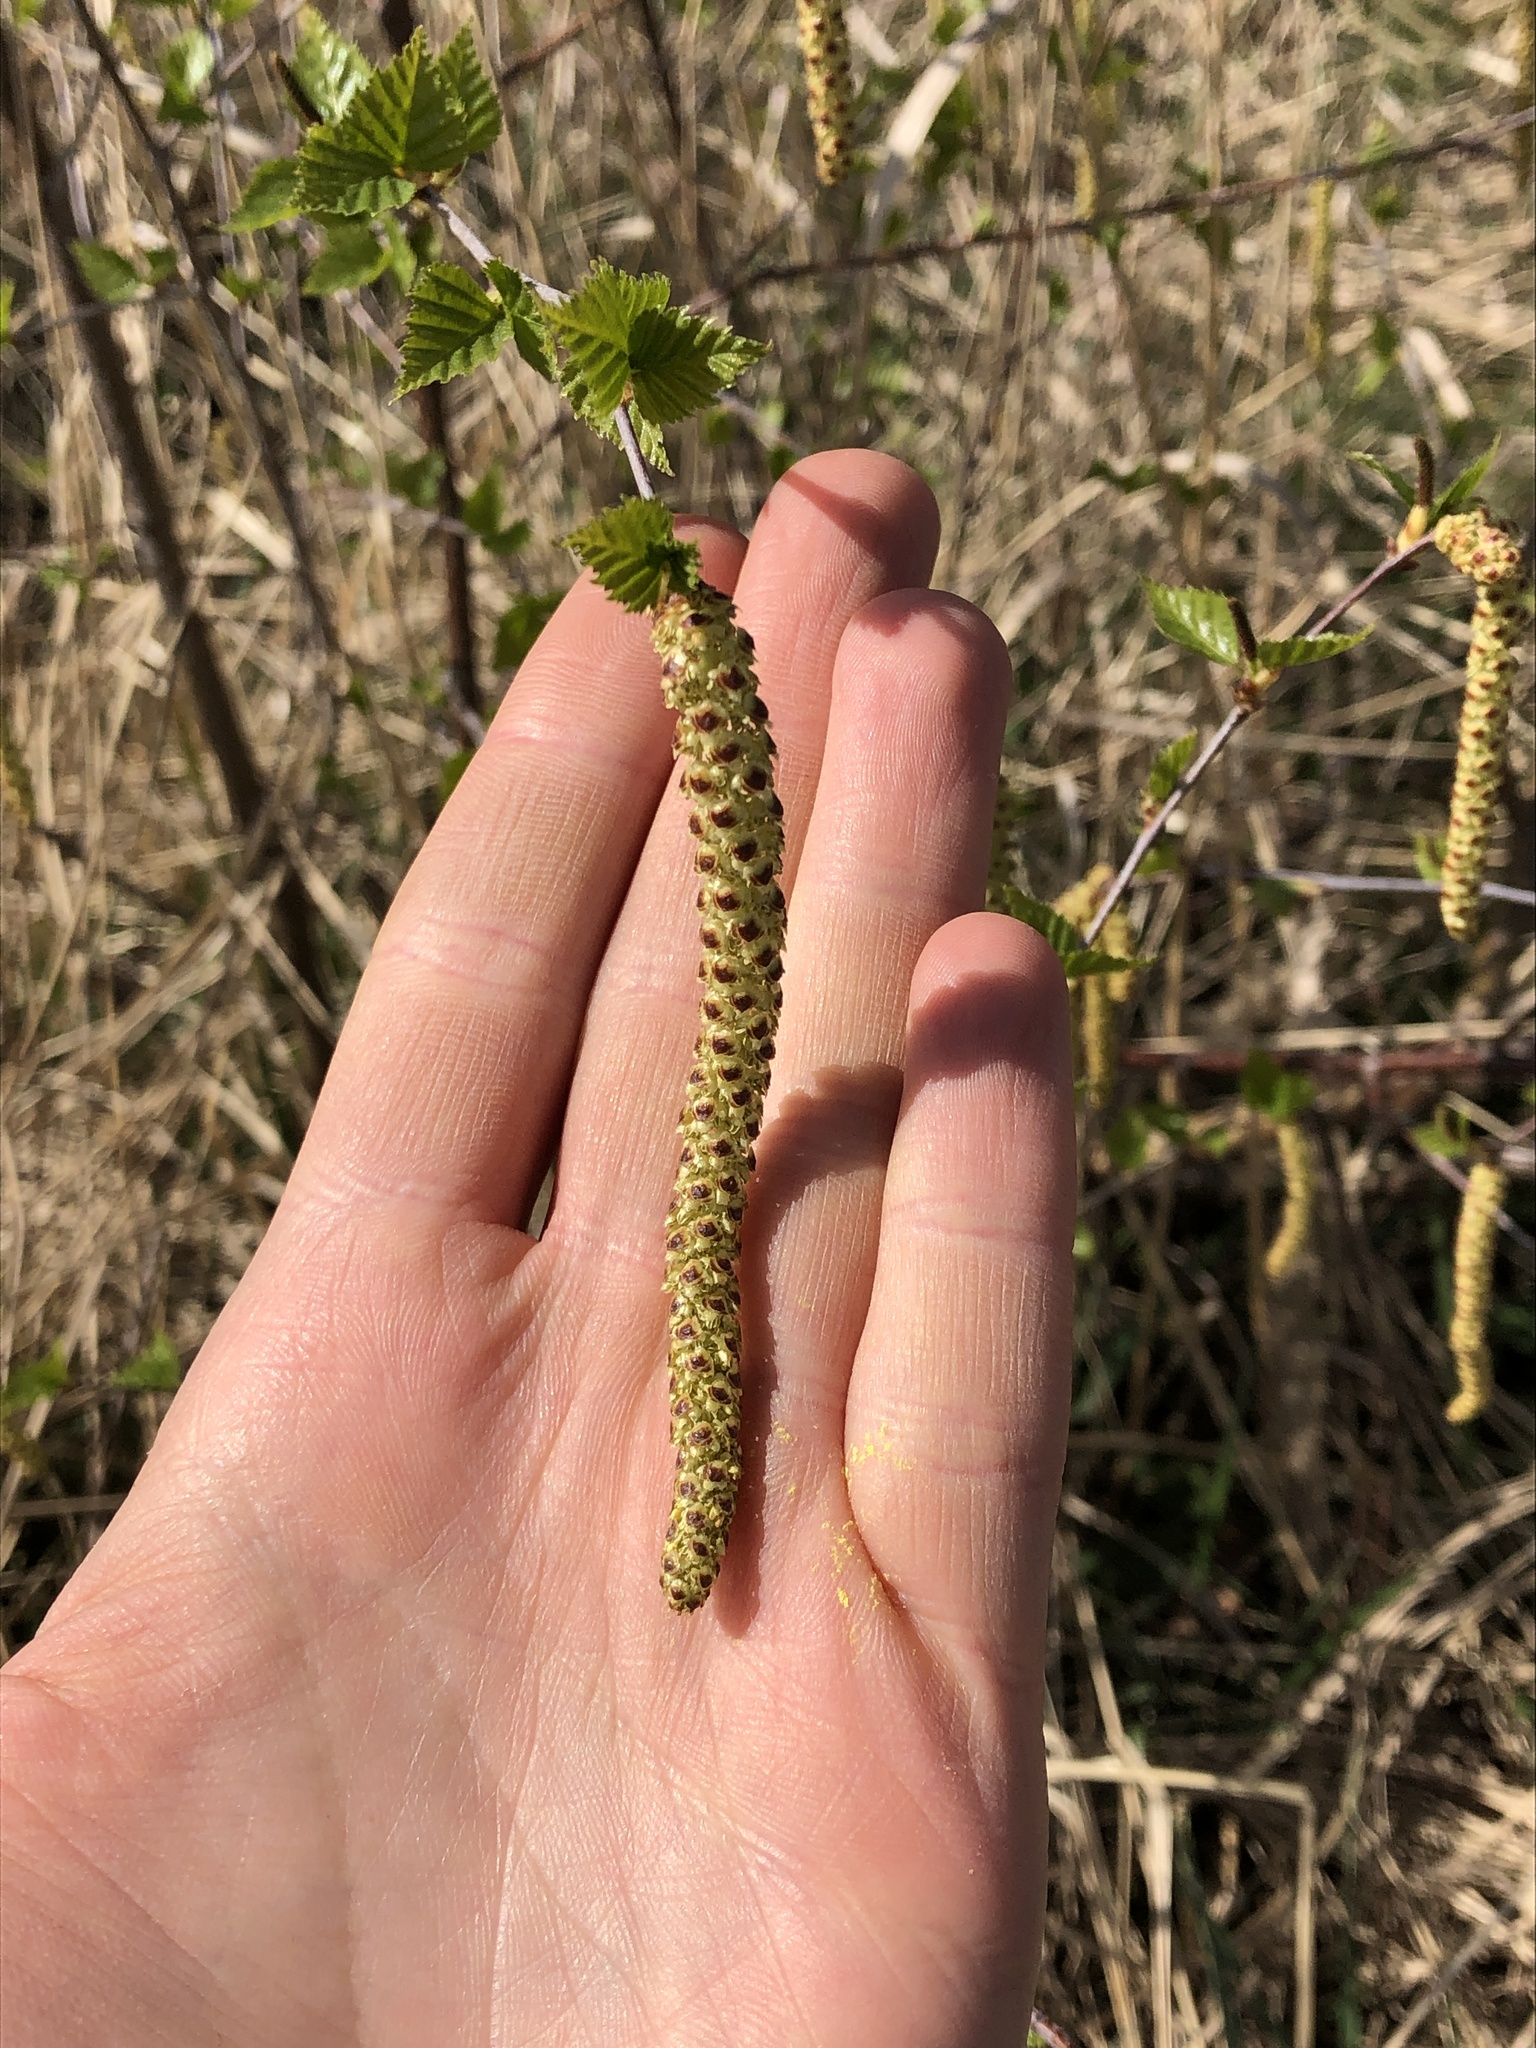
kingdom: Plantae
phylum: Tracheophyta
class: Magnoliopsida
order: Fagales
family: Betulaceae
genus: Betula
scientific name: Betula pendula
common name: Silver birch
